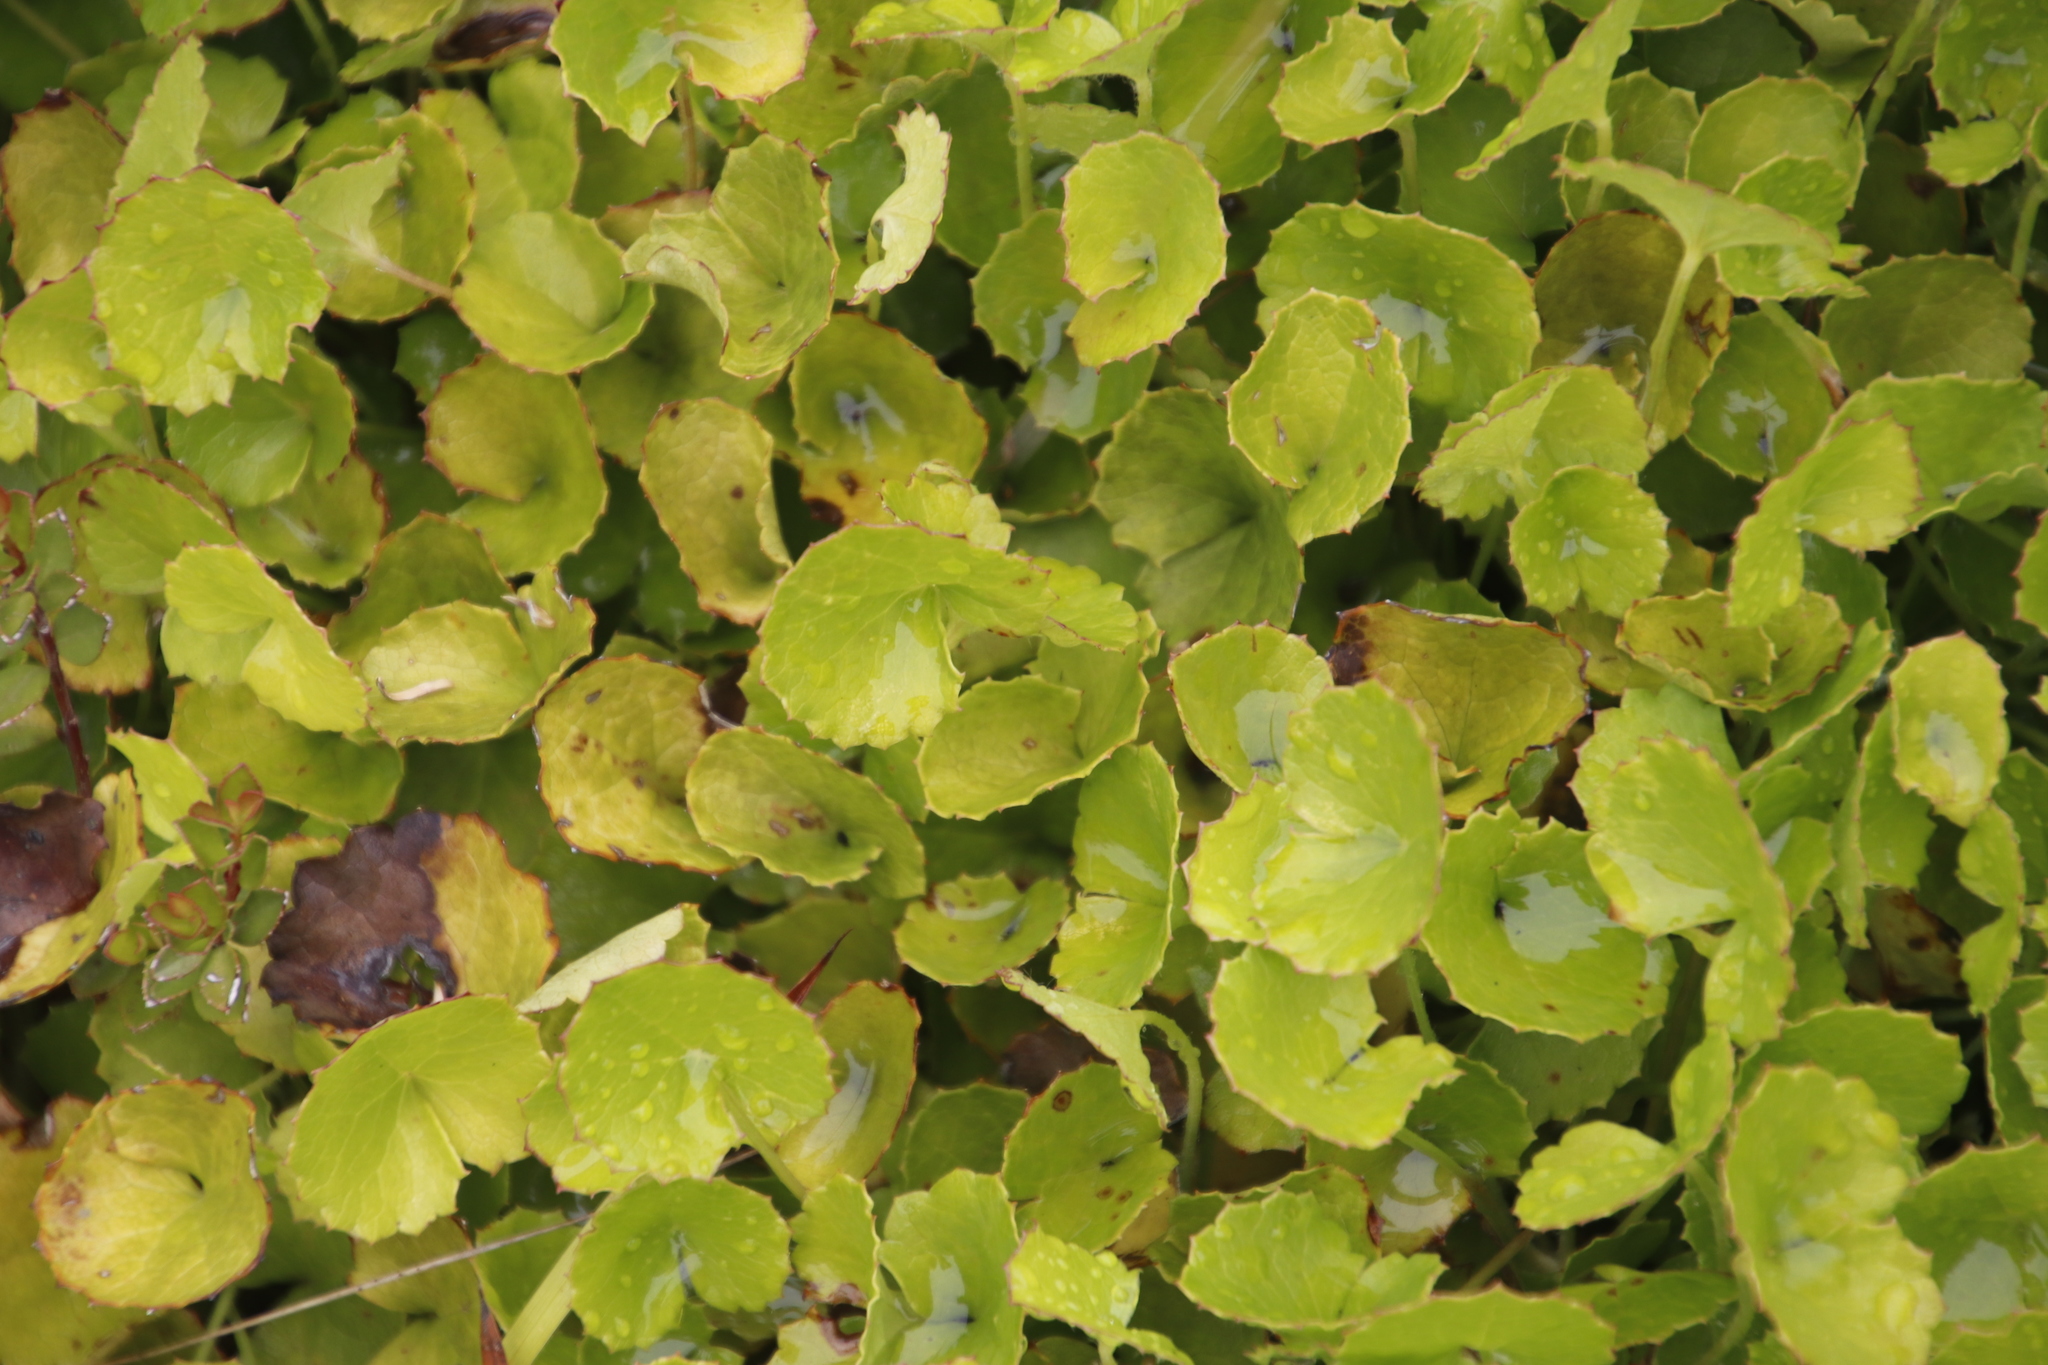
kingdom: Plantae
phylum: Tracheophyta
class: Magnoliopsida
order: Apiales
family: Apiaceae
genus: Centella
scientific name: Centella eriantha
